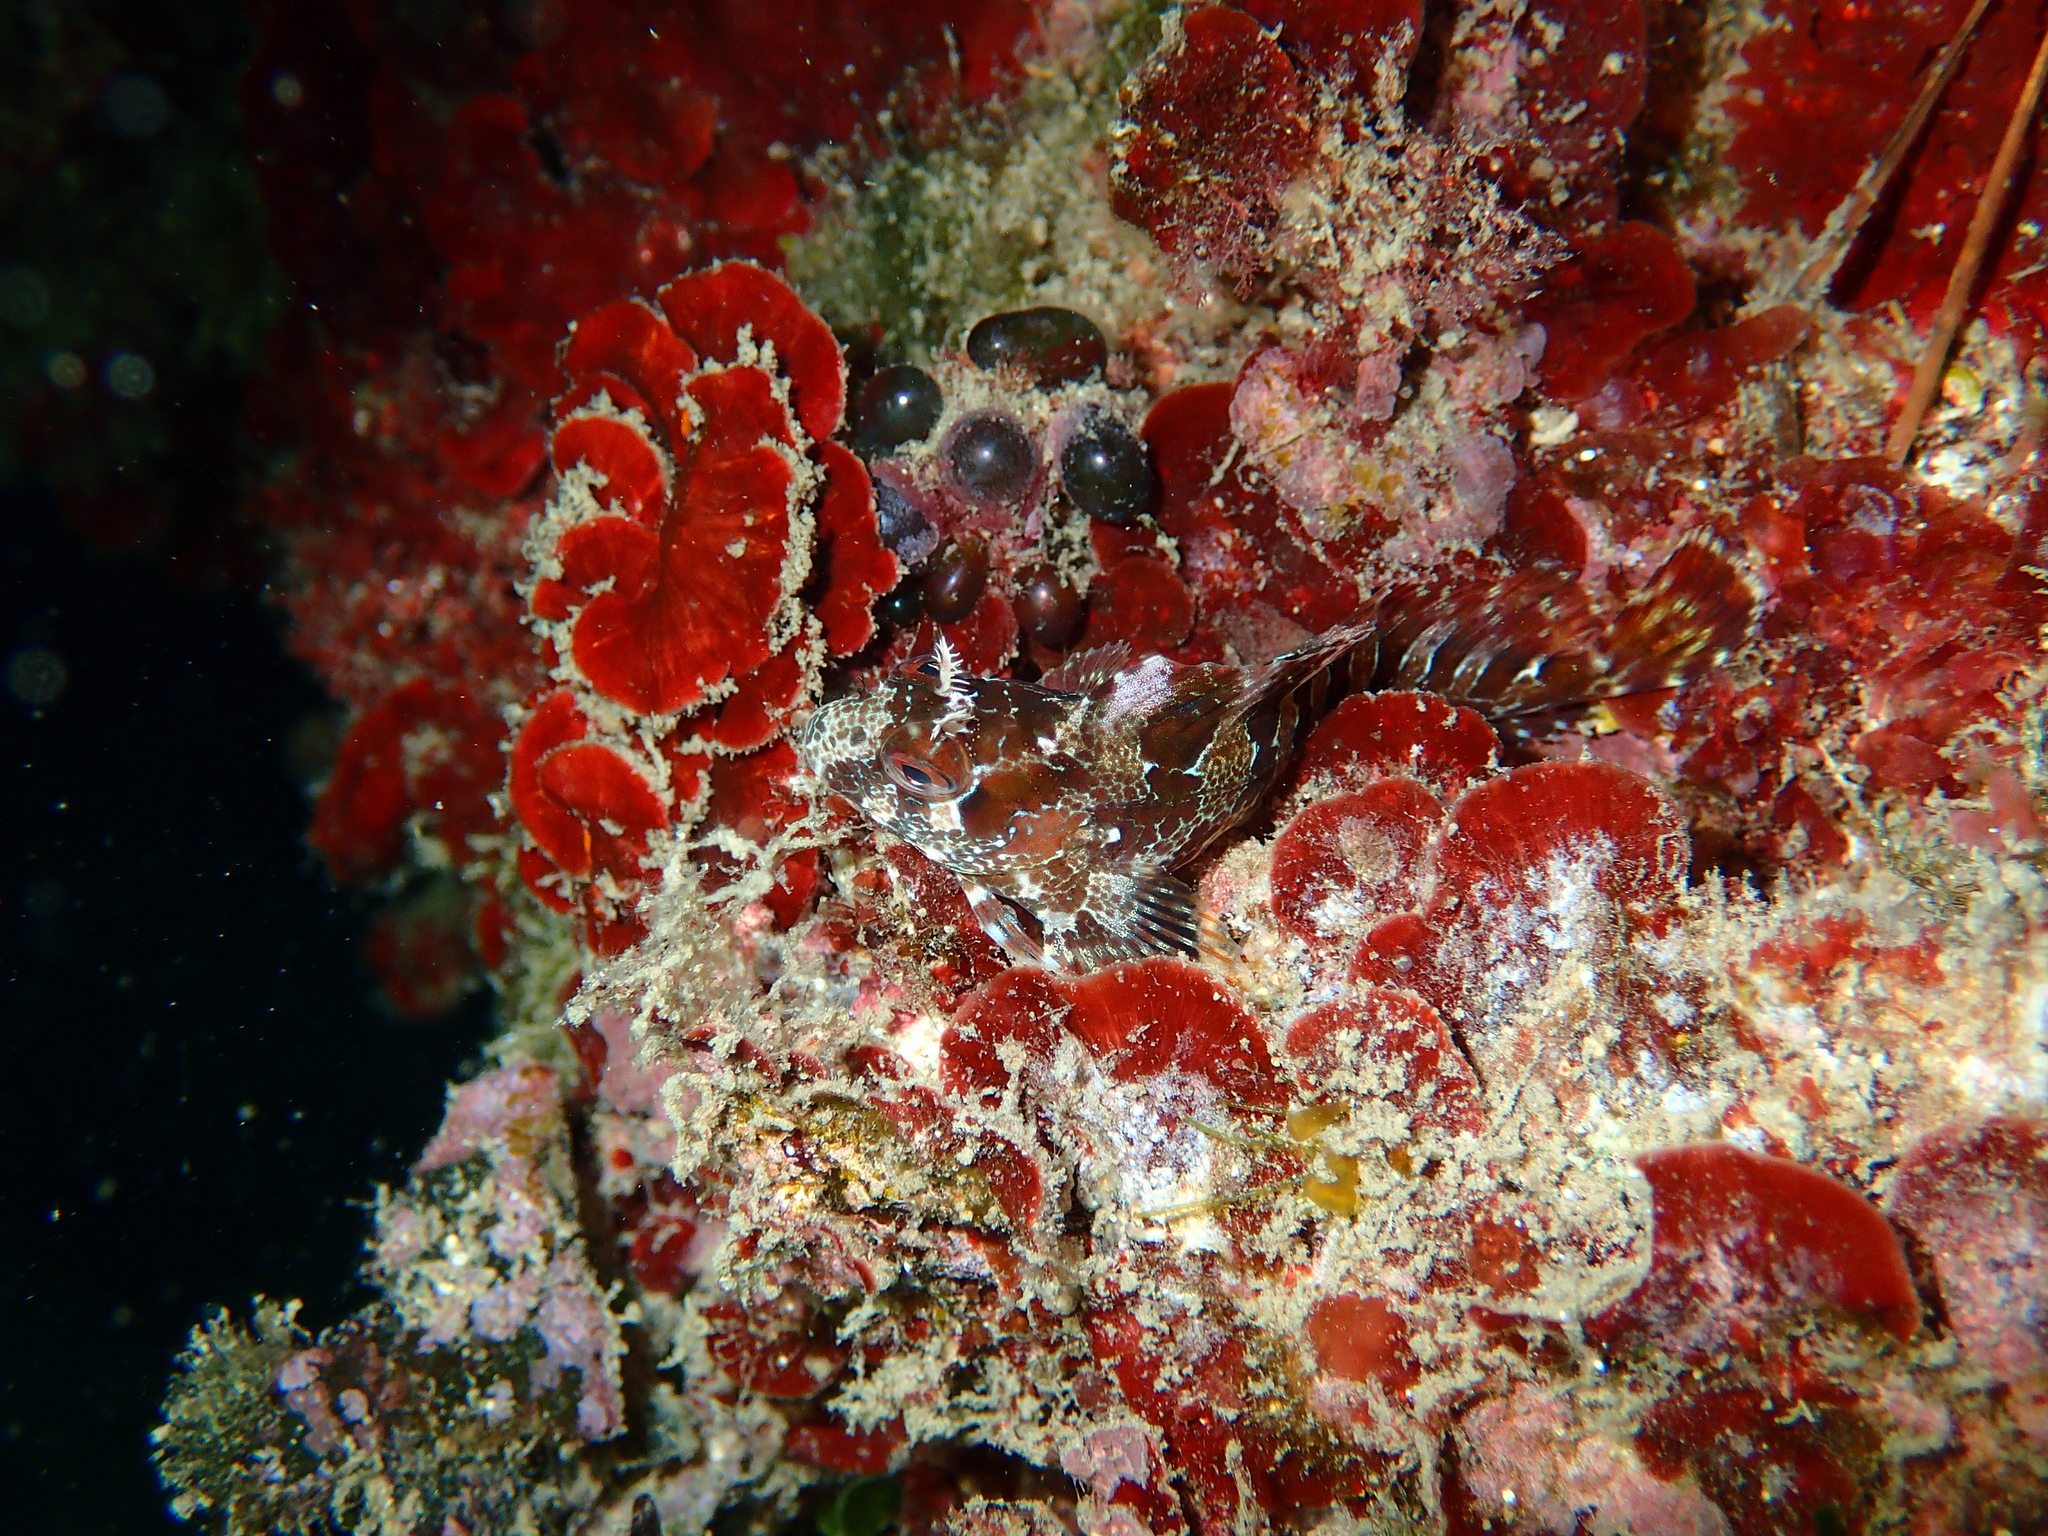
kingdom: Animalia
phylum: Chordata
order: Perciformes
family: Blenniidae
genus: Parablennius
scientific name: Parablennius gattorugine
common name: Tompot blenny
